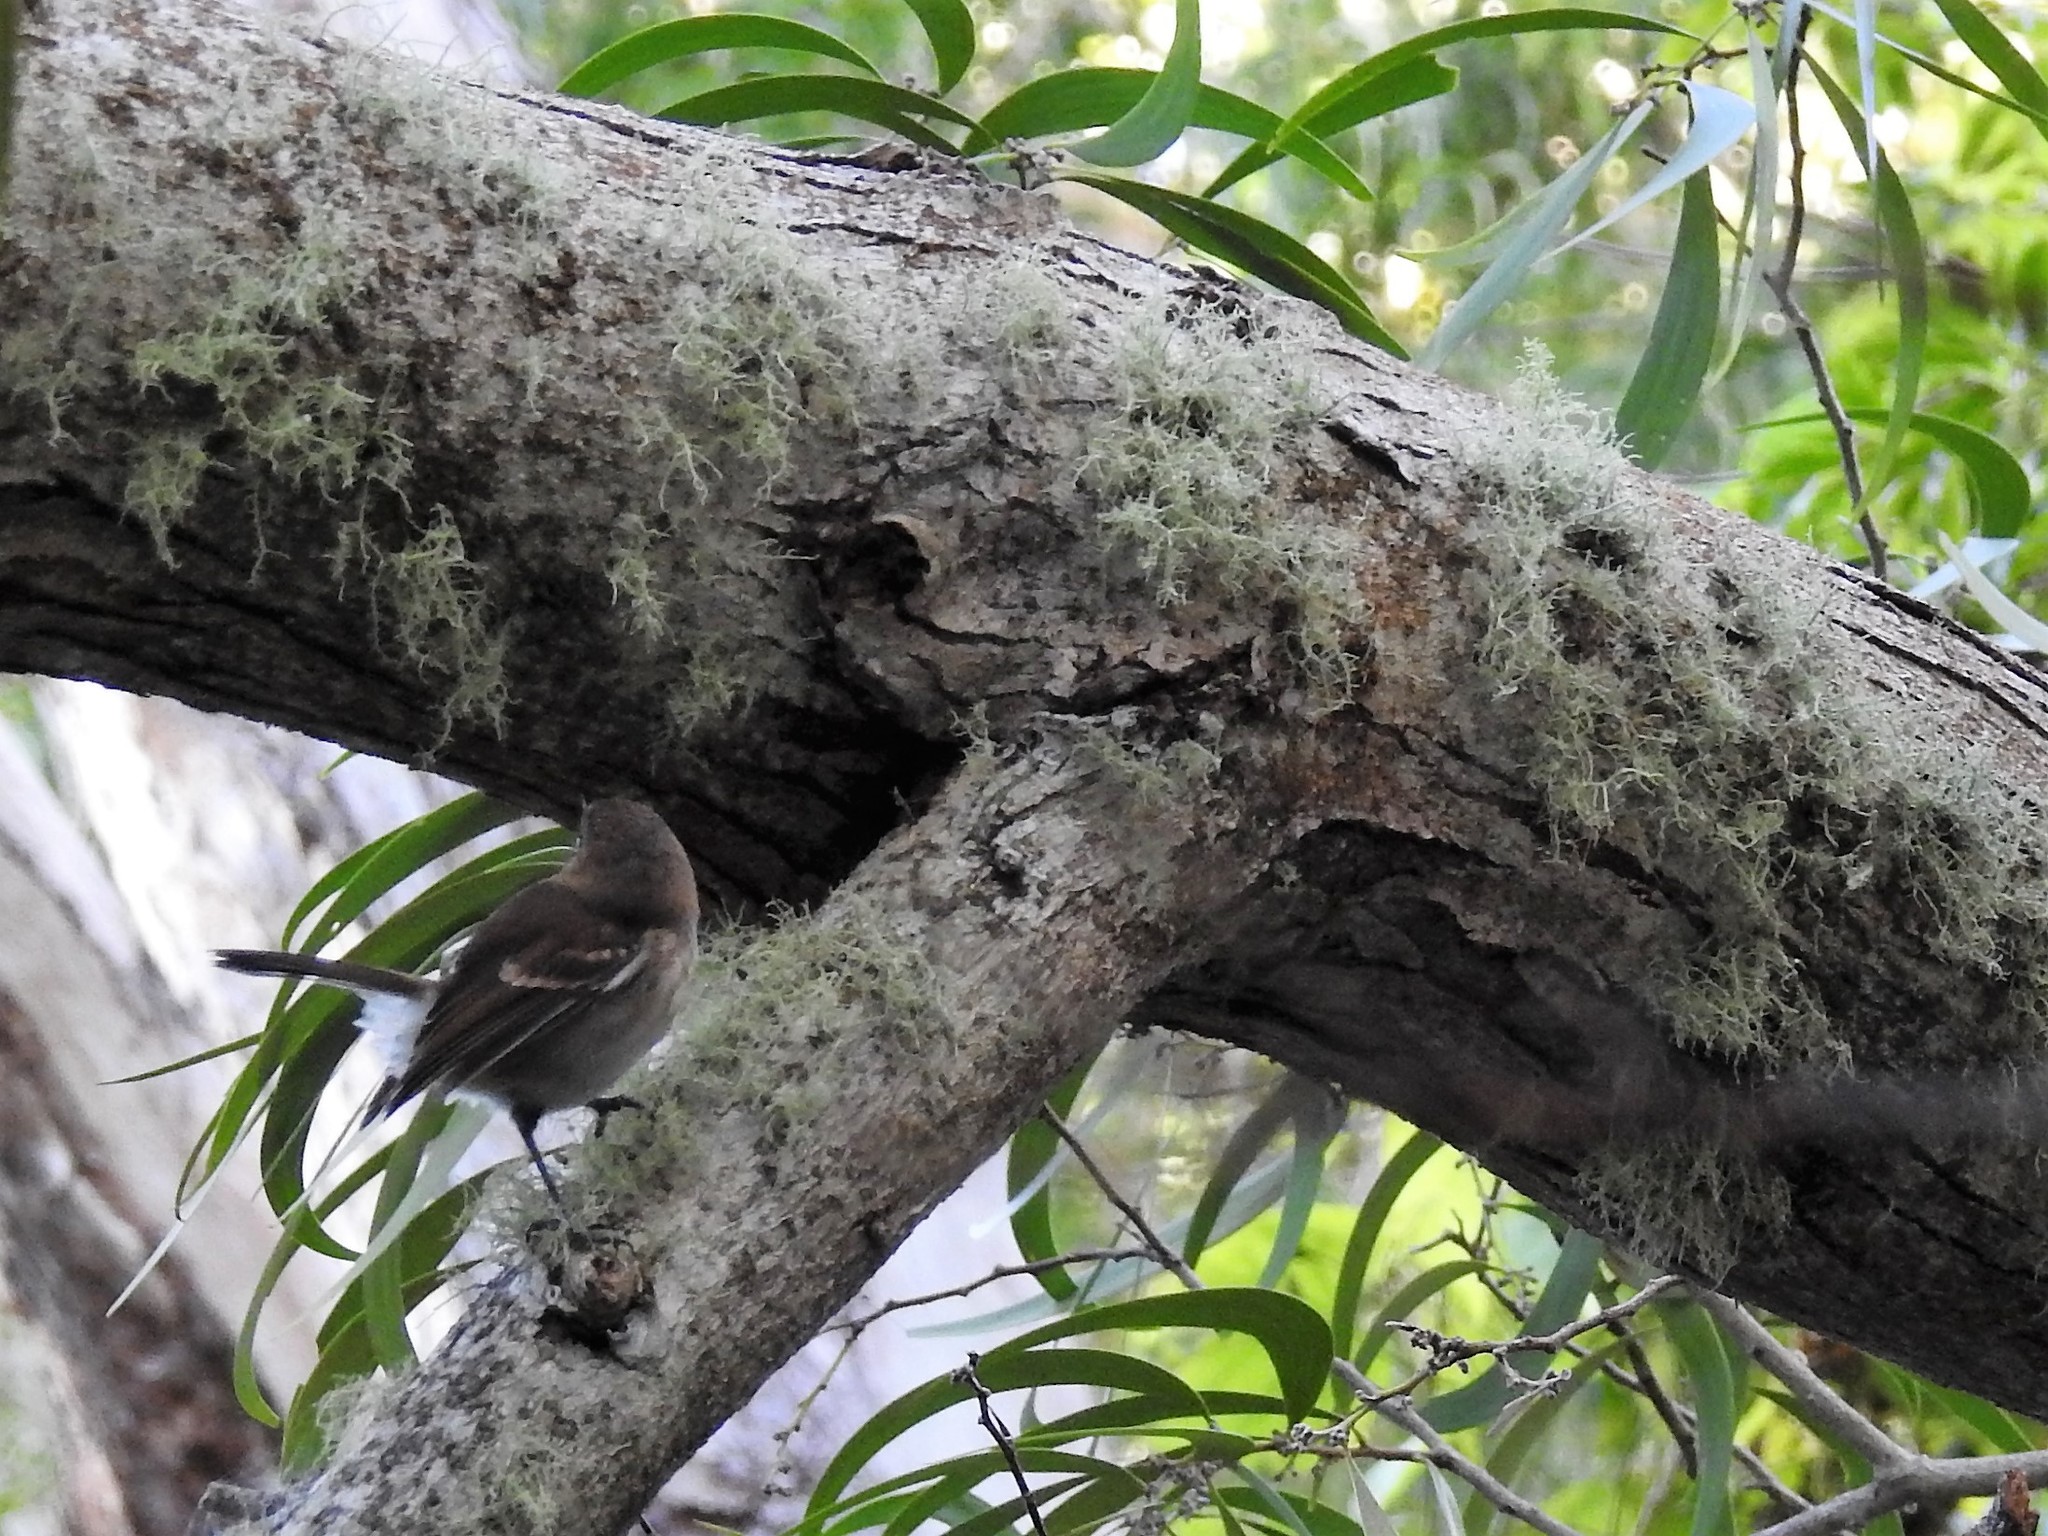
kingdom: Animalia
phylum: Chordata
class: Aves
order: Passeriformes
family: Monarchidae
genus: Chasiempis
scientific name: Chasiempis sandwichensis
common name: Hawaii elepaio
